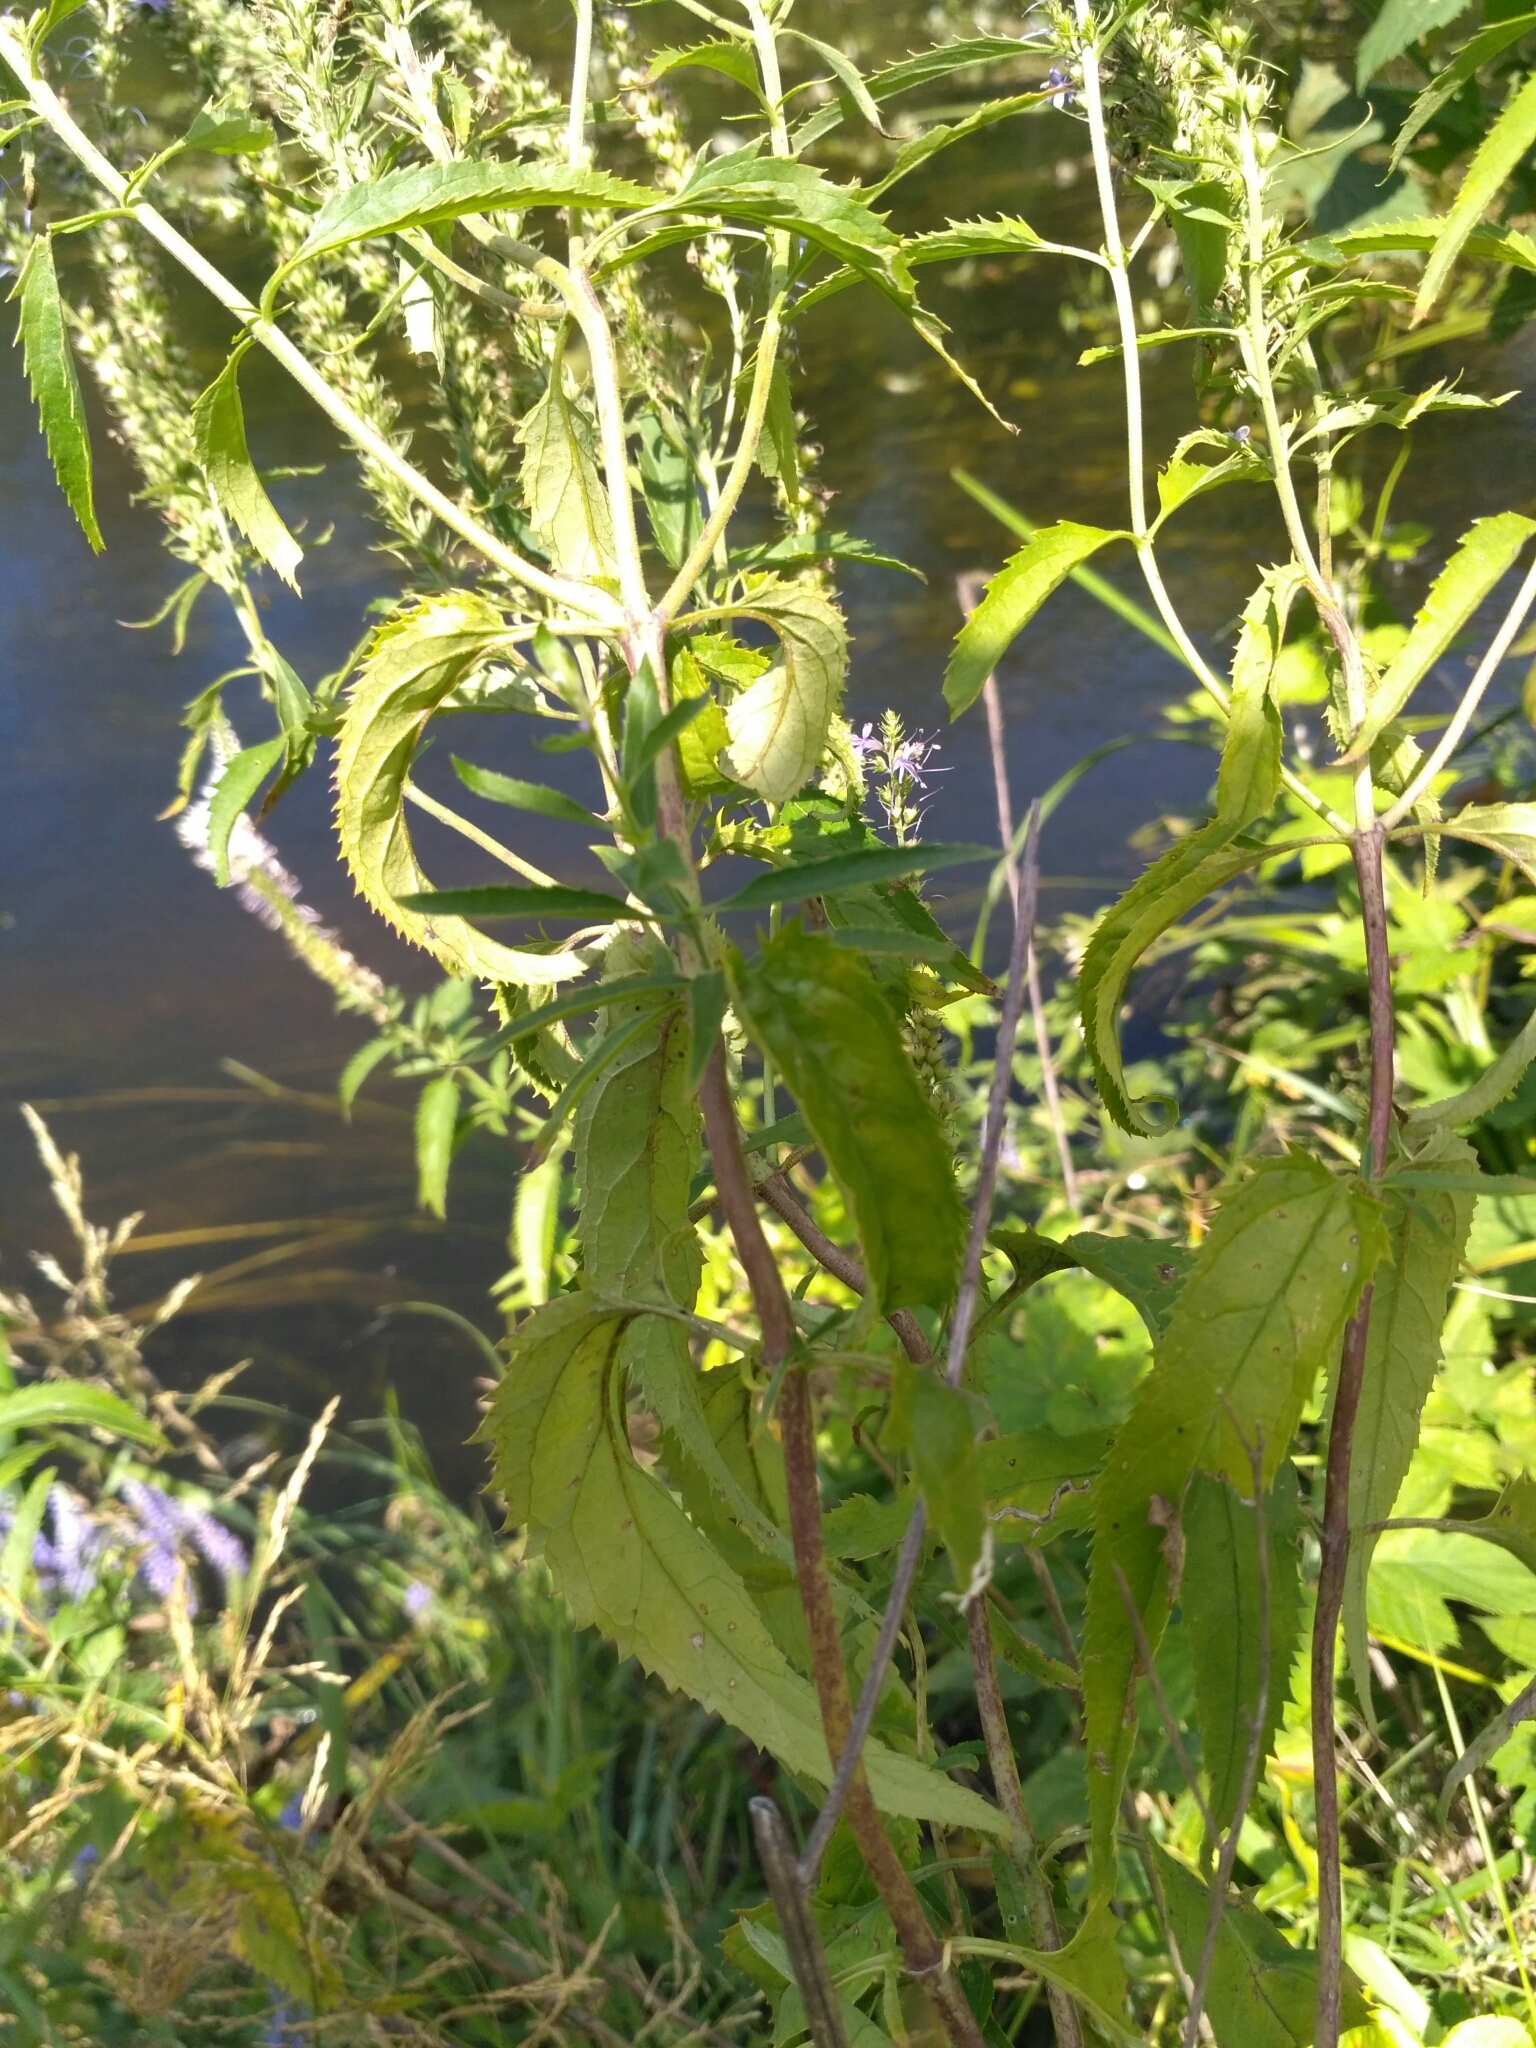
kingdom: Plantae
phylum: Tracheophyta
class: Magnoliopsida
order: Lamiales
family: Plantaginaceae
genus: Veronica
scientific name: Veronica longifolia
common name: Garden speedwell
